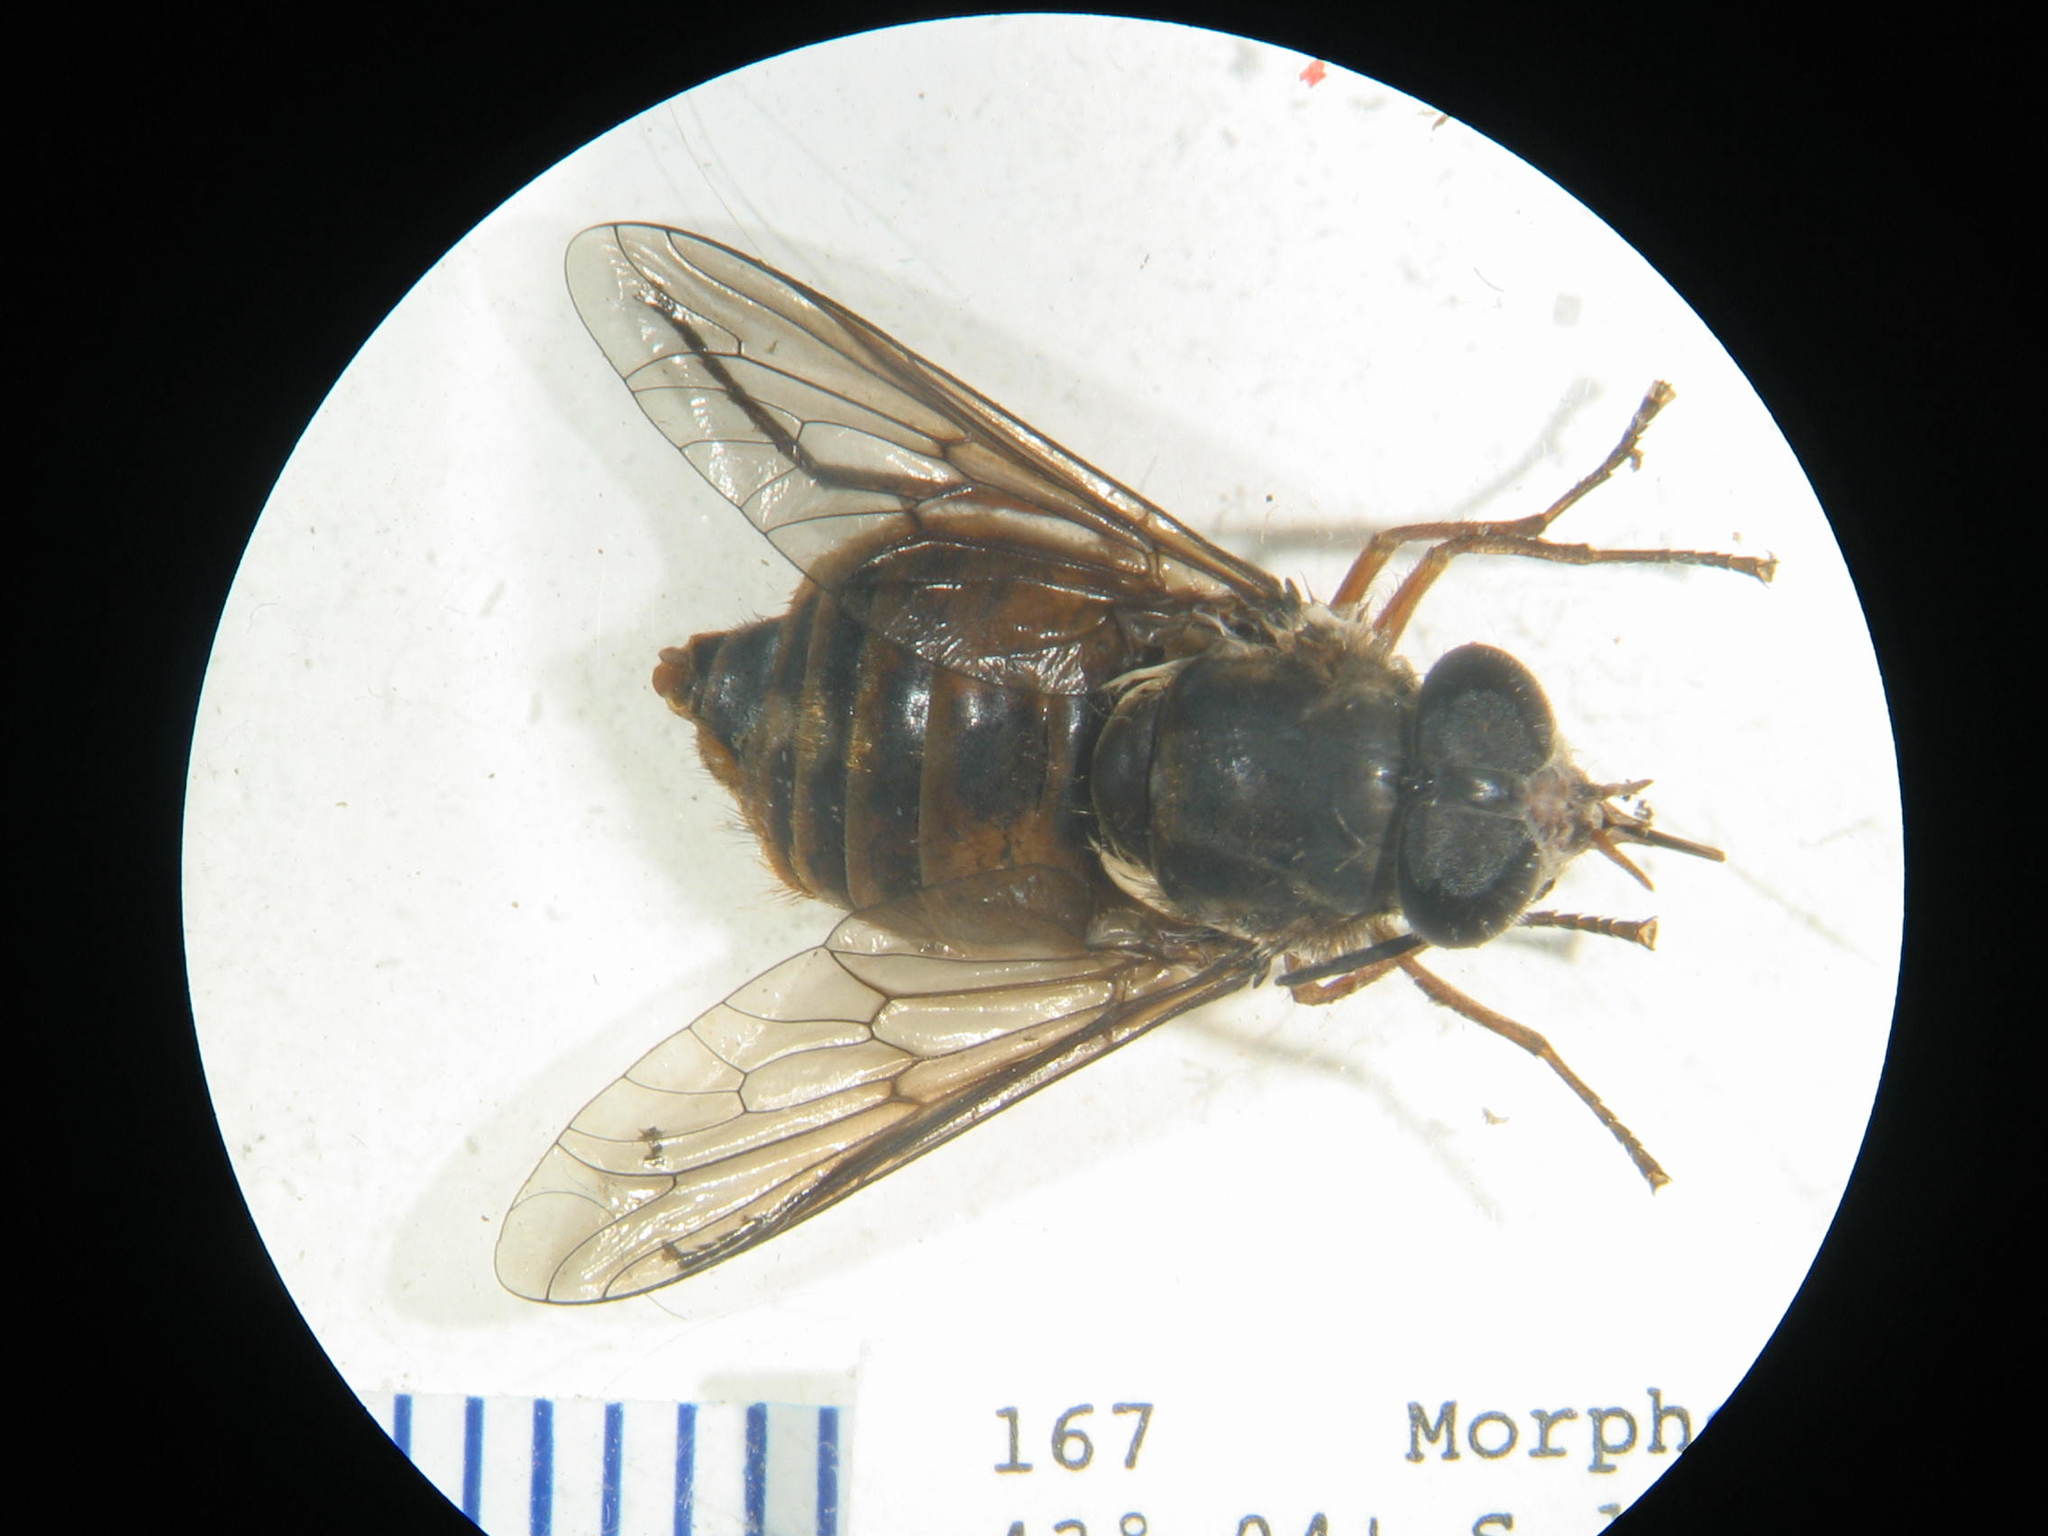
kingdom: Animalia
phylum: Arthropoda
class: Insecta
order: Diptera
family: Tabanidae
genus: Scaptia
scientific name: Scaptia jacksonii
